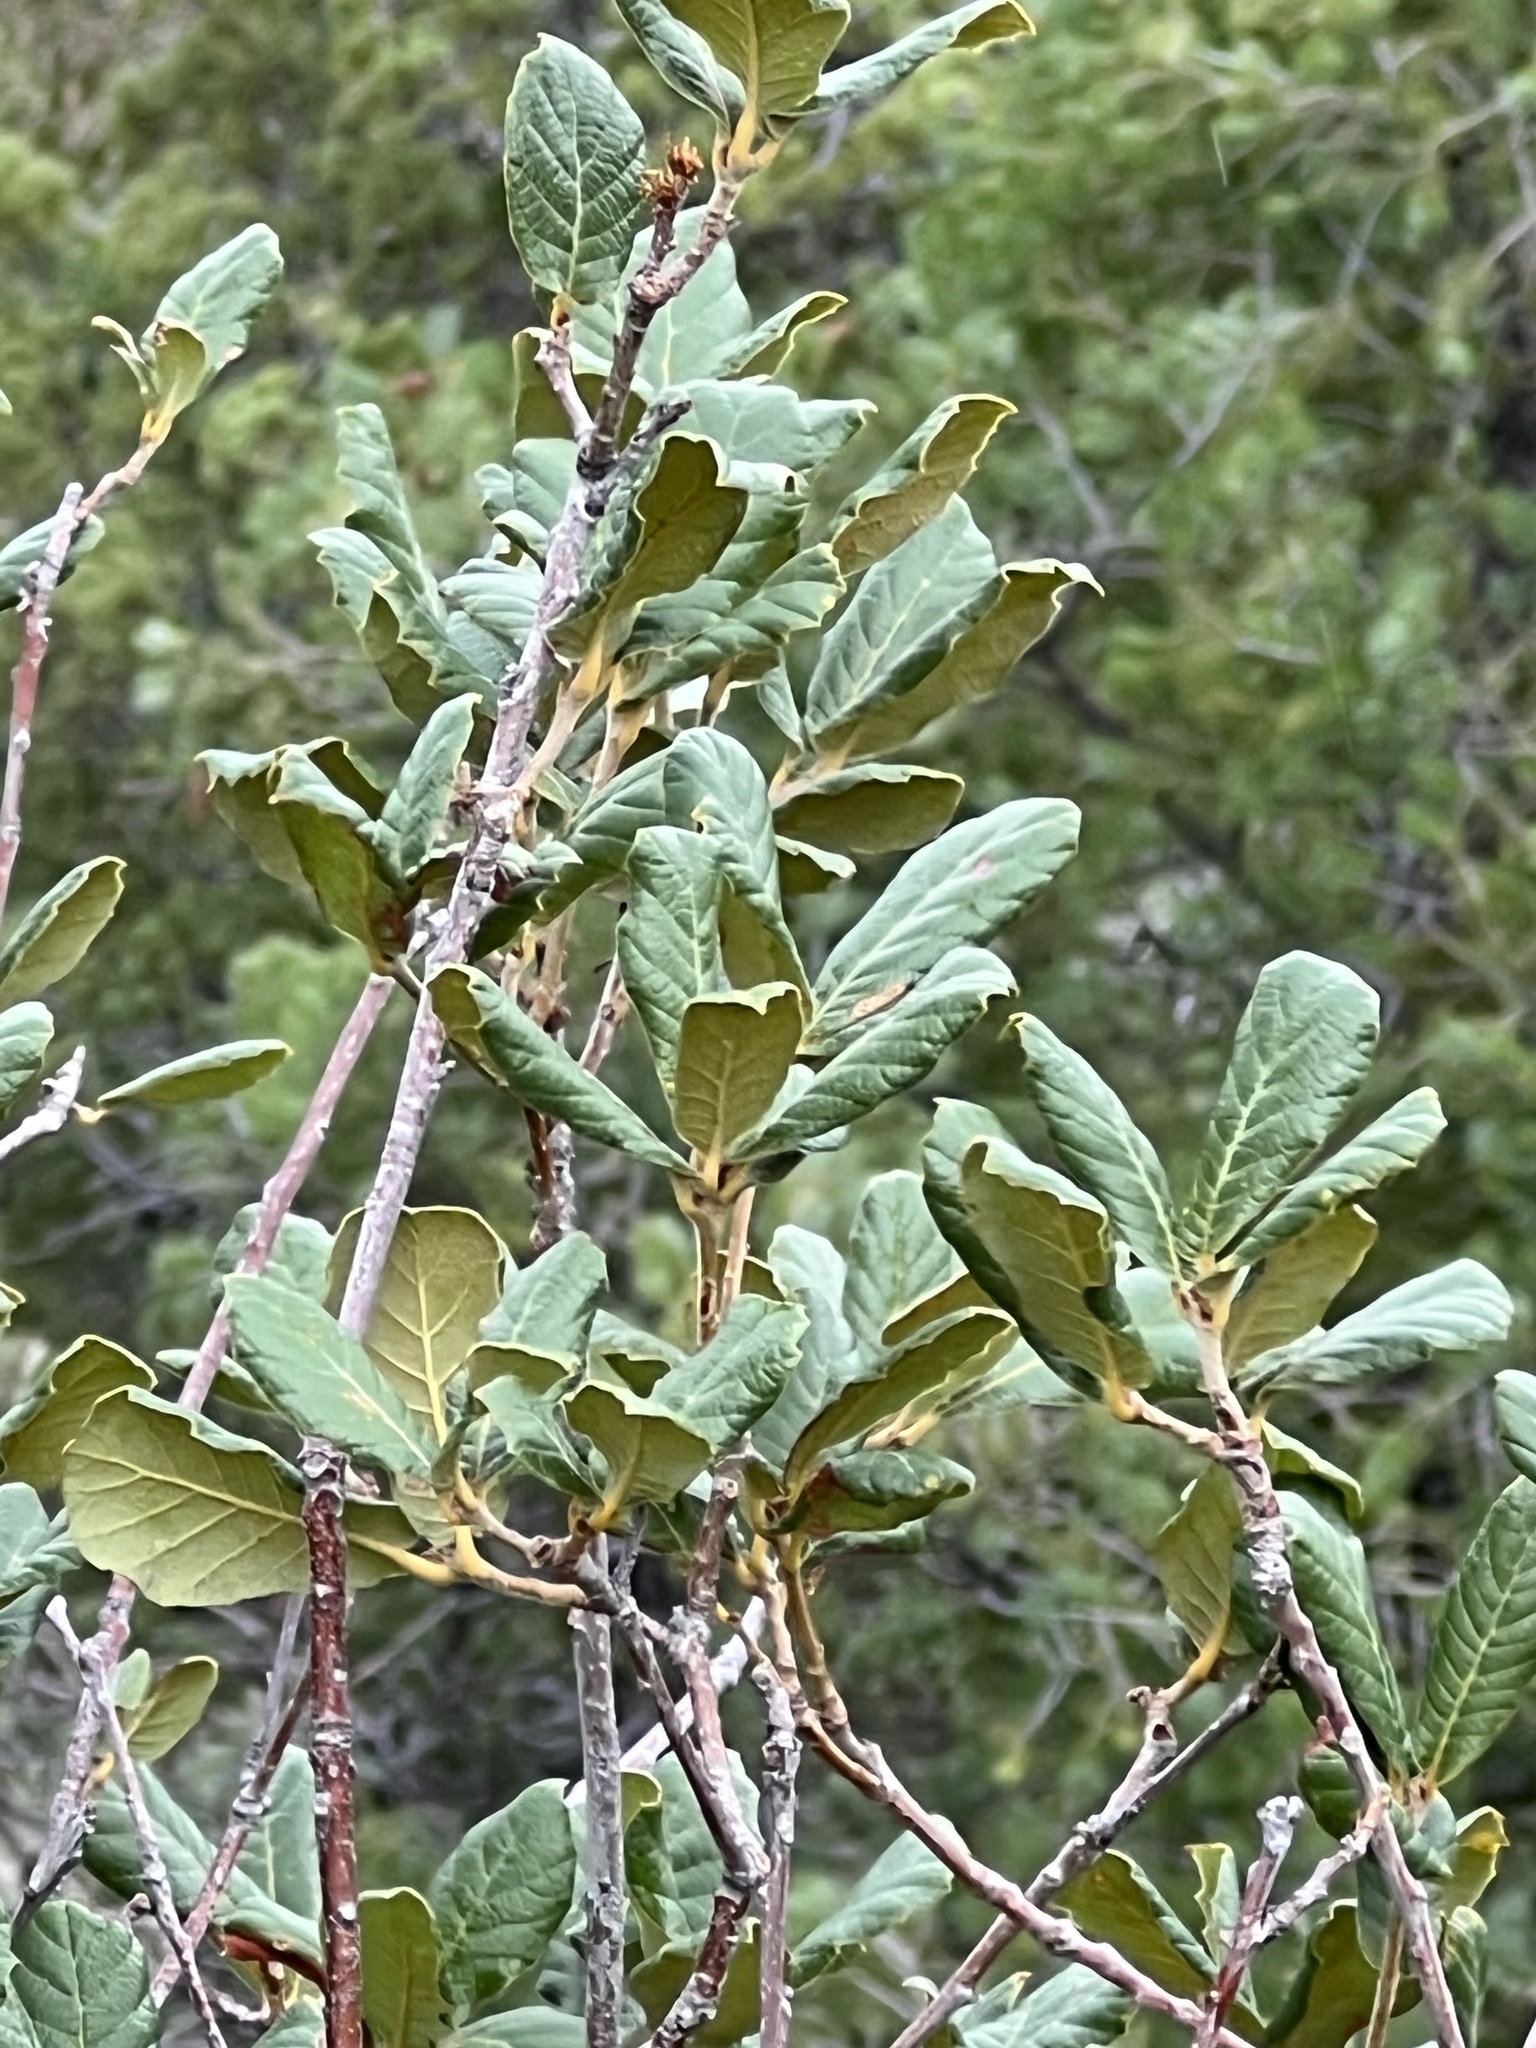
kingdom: Plantae
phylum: Tracheophyta
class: Magnoliopsida
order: Fagales
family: Fagaceae
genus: Quercus
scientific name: Quercus rugosa
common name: Netleaf oak
